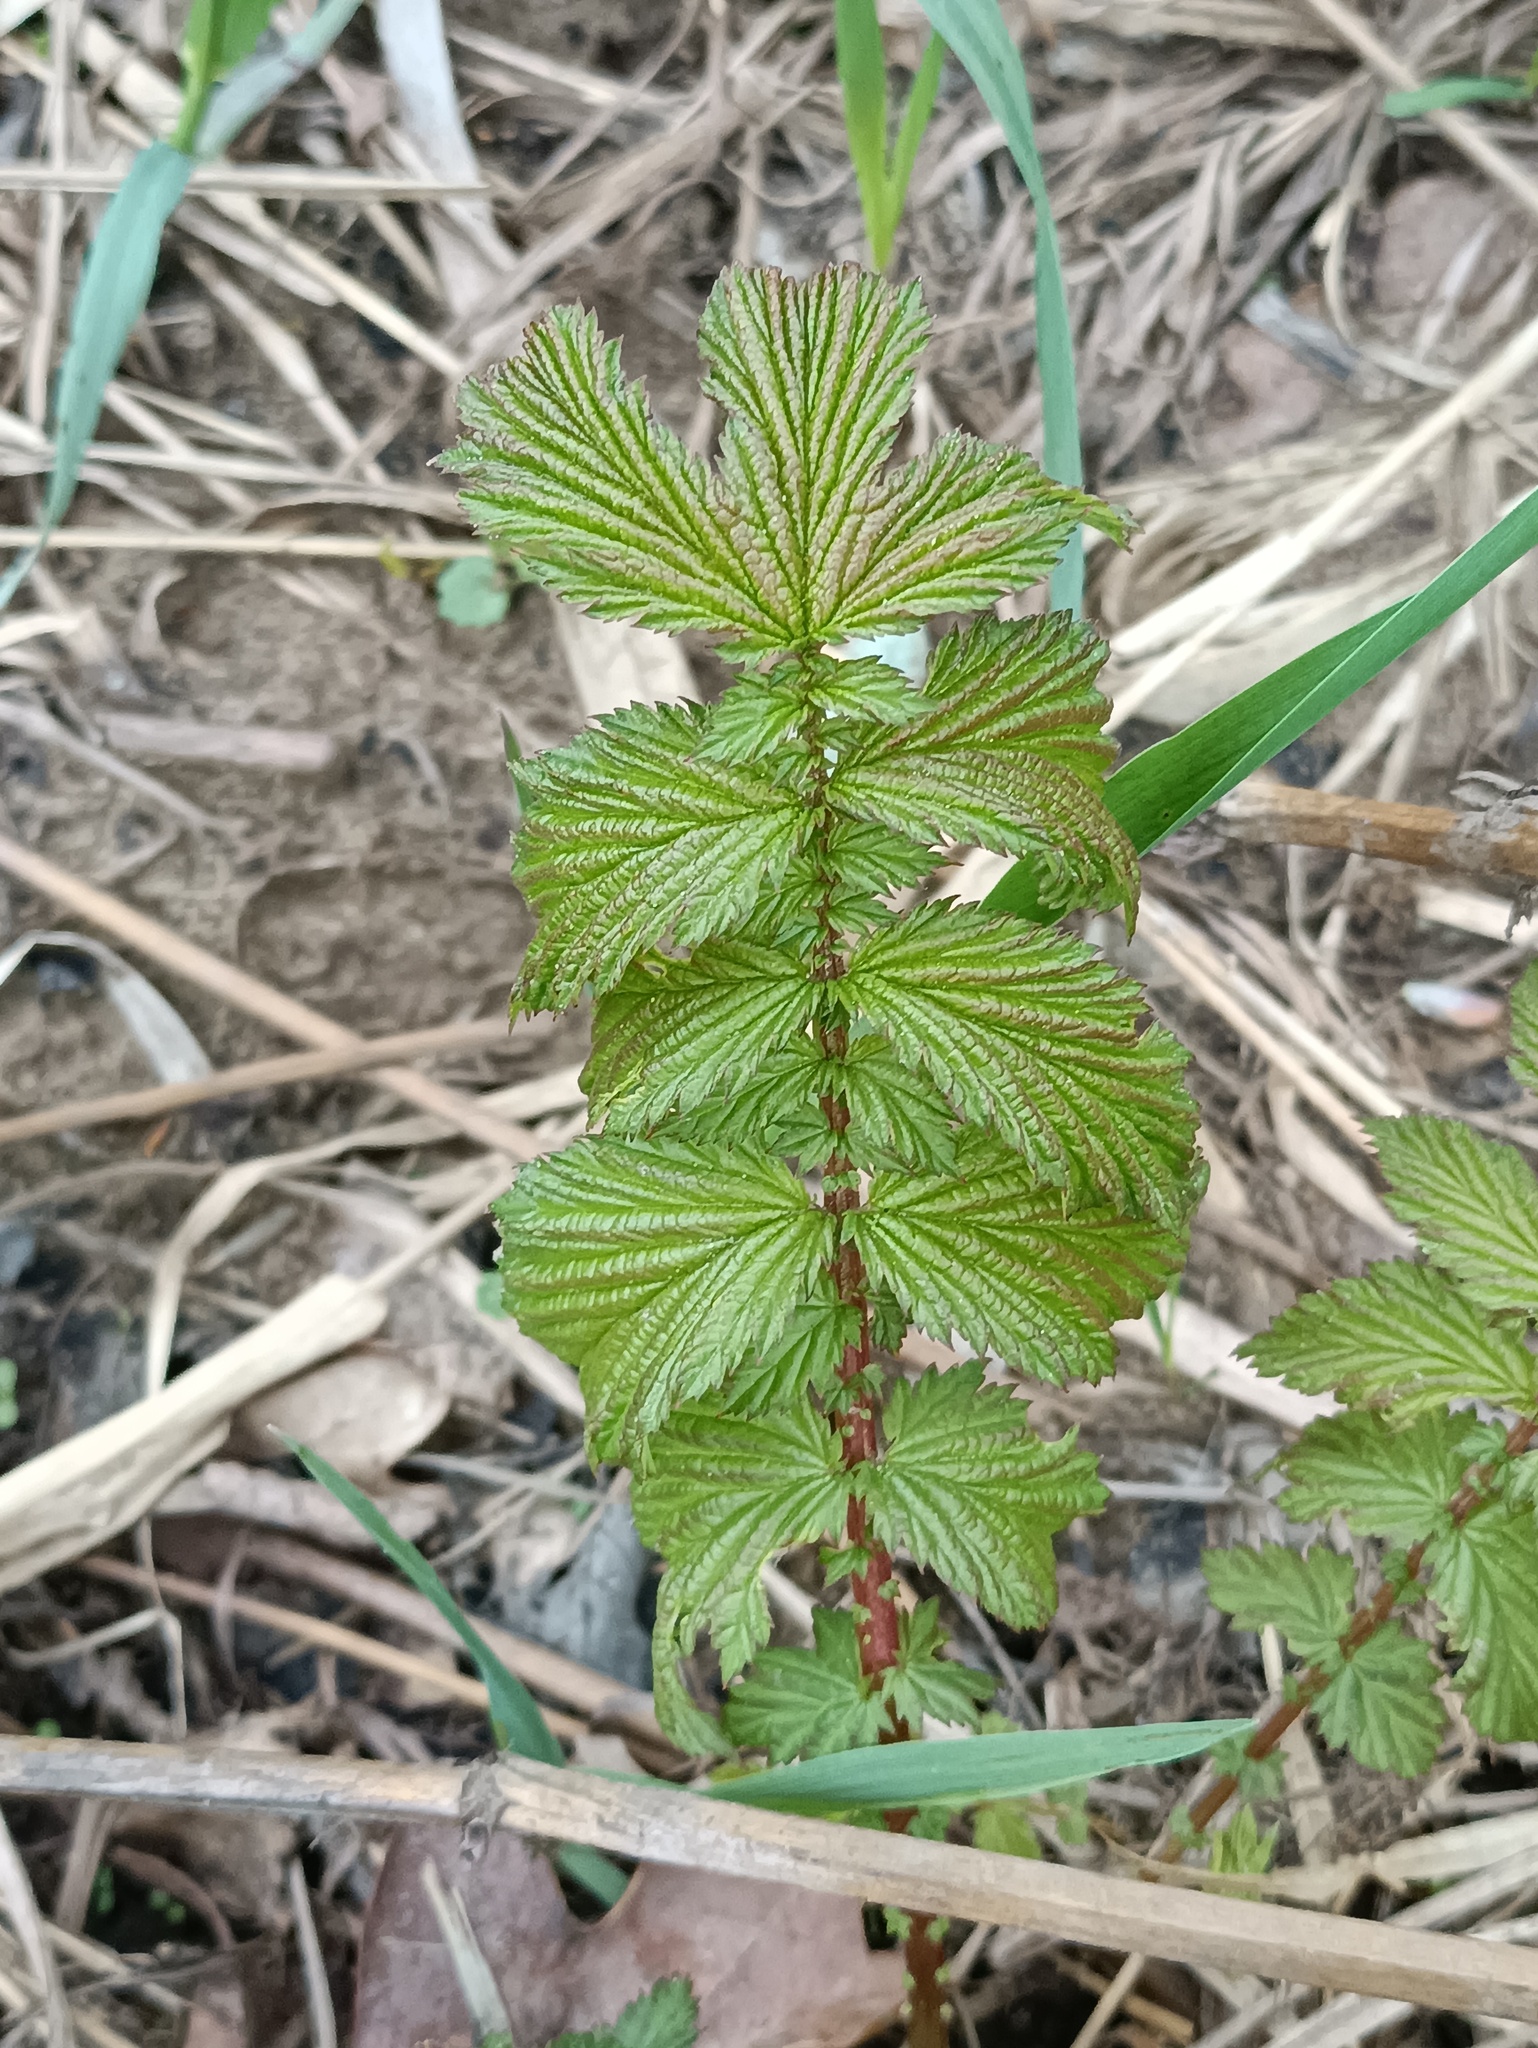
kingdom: Plantae
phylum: Tracheophyta
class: Magnoliopsida
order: Rosales
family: Rosaceae
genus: Filipendula
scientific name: Filipendula ulmaria
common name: Meadowsweet
